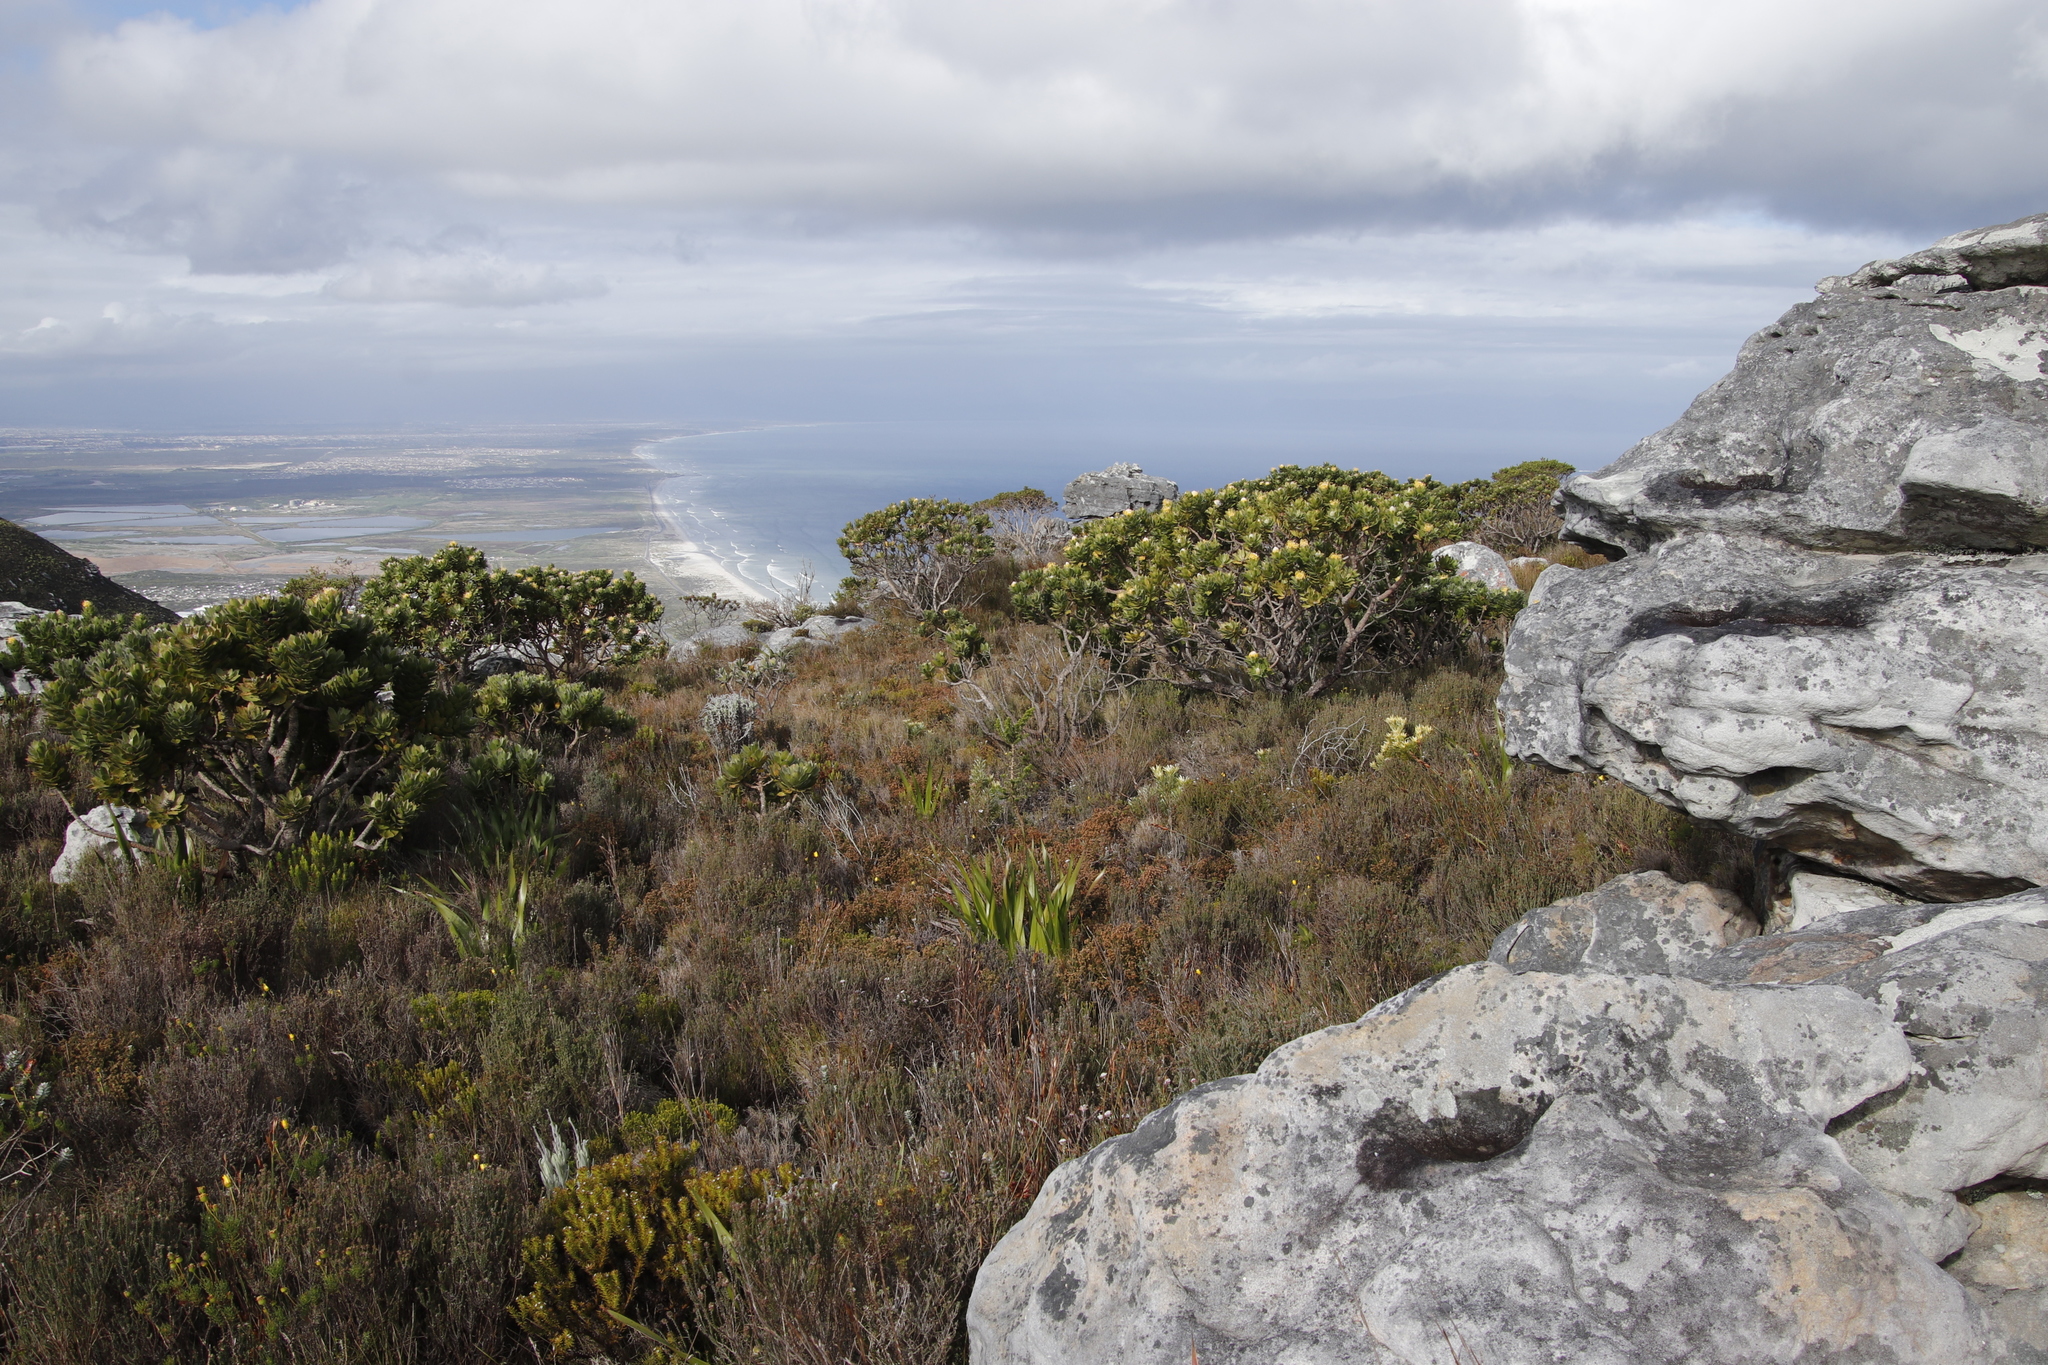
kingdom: Plantae
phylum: Tracheophyta
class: Magnoliopsida
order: Proteales
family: Proteaceae
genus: Leucospermum
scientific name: Leucospermum conocarpodendron
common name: Tree pincushion
